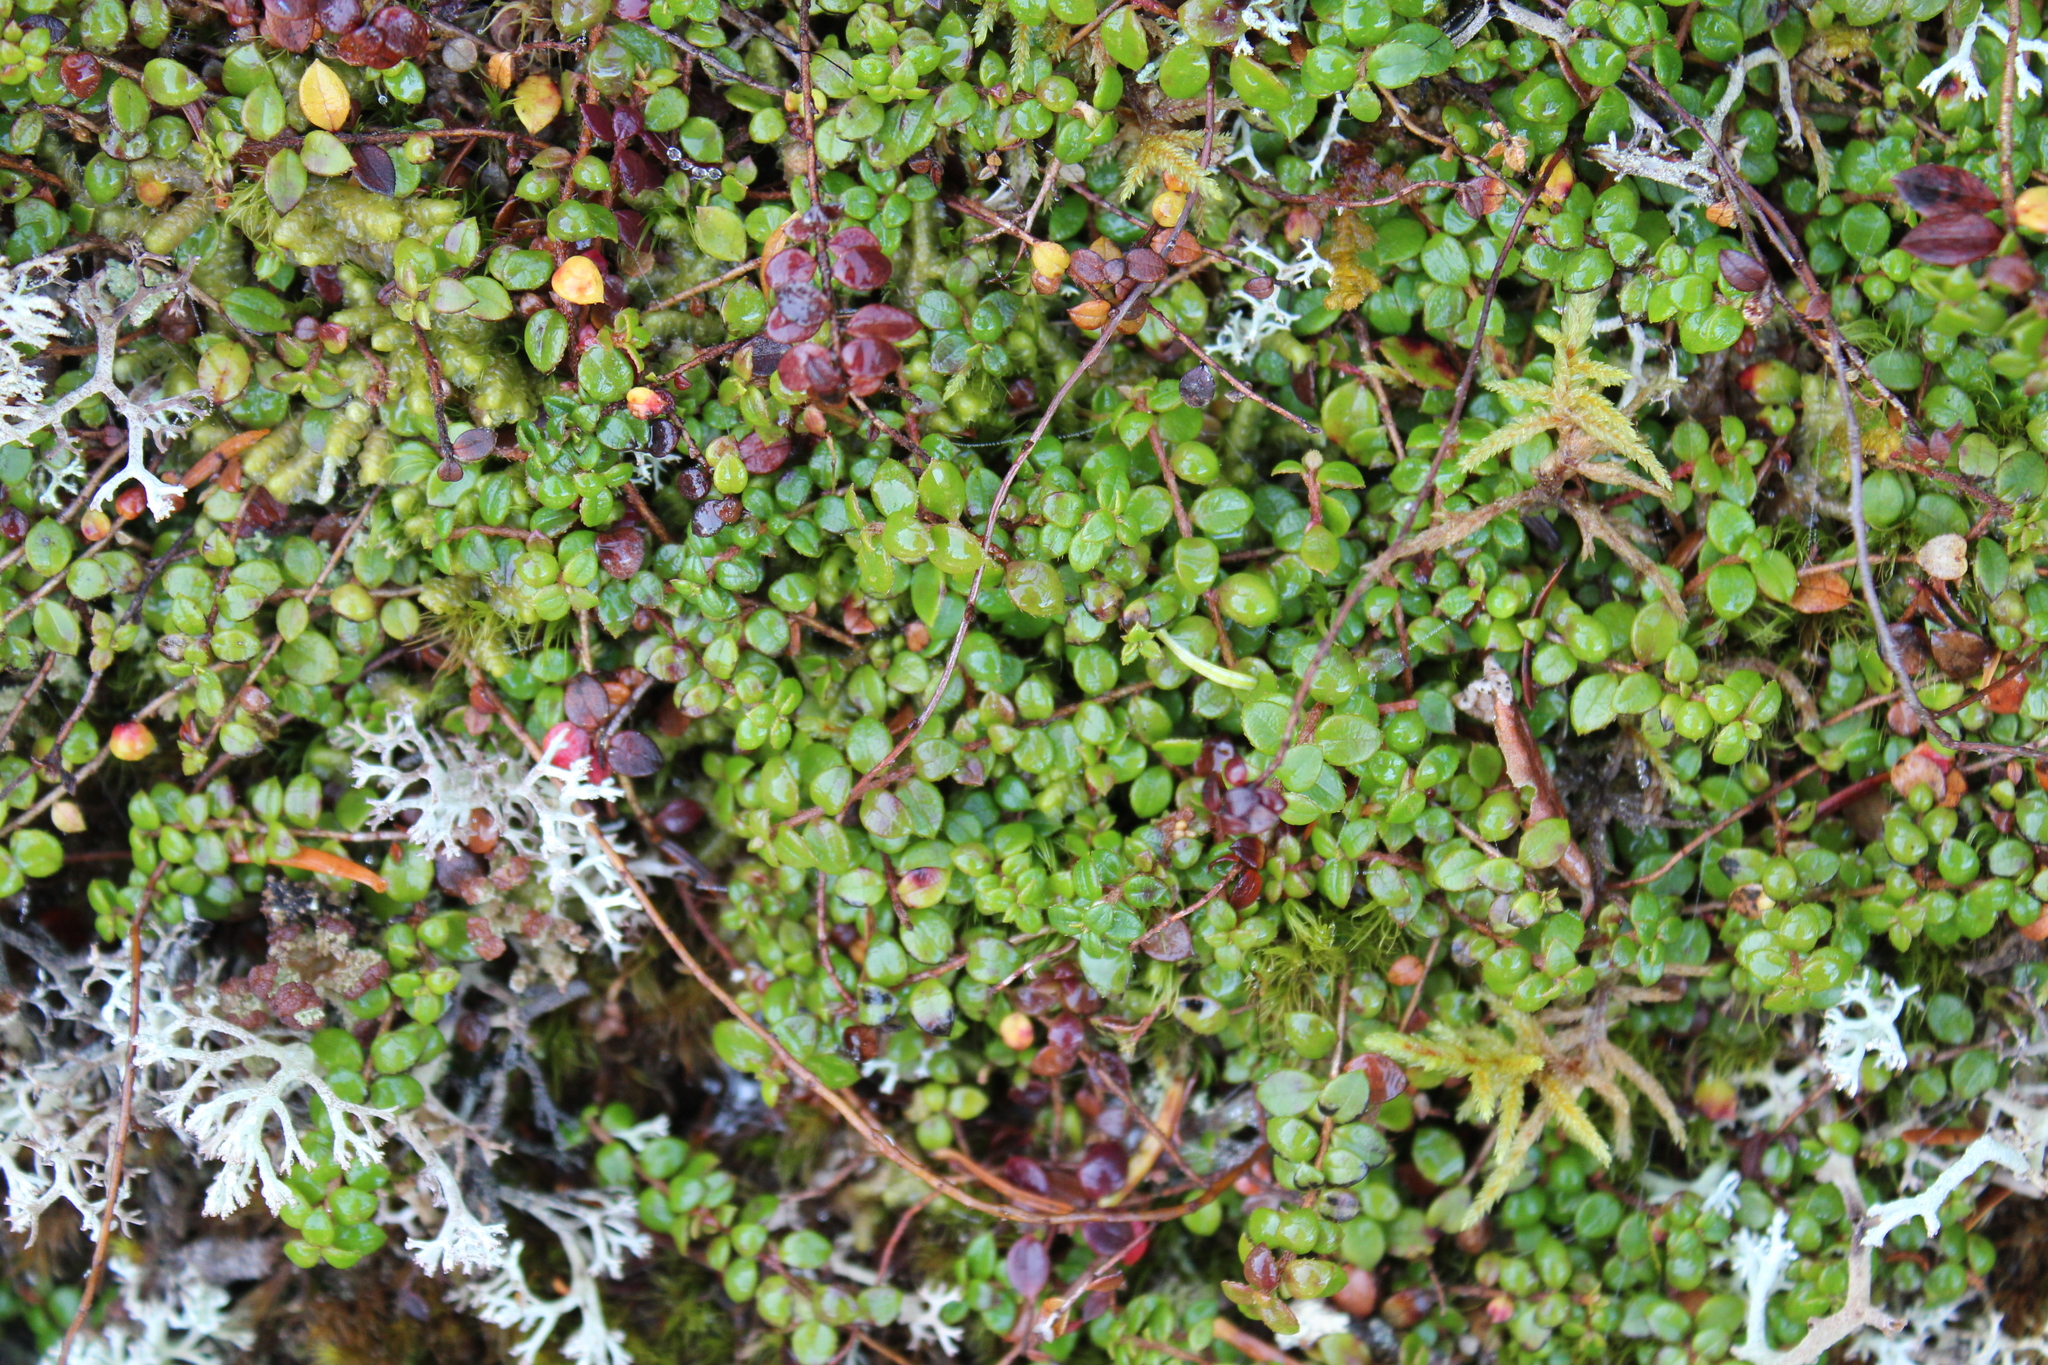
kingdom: Plantae
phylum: Tracheophyta
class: Magnoliopsida
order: Ericales
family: Ericaceae
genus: Gaultheria
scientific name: Gaultheria hispidula
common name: Cancer wintergreen
